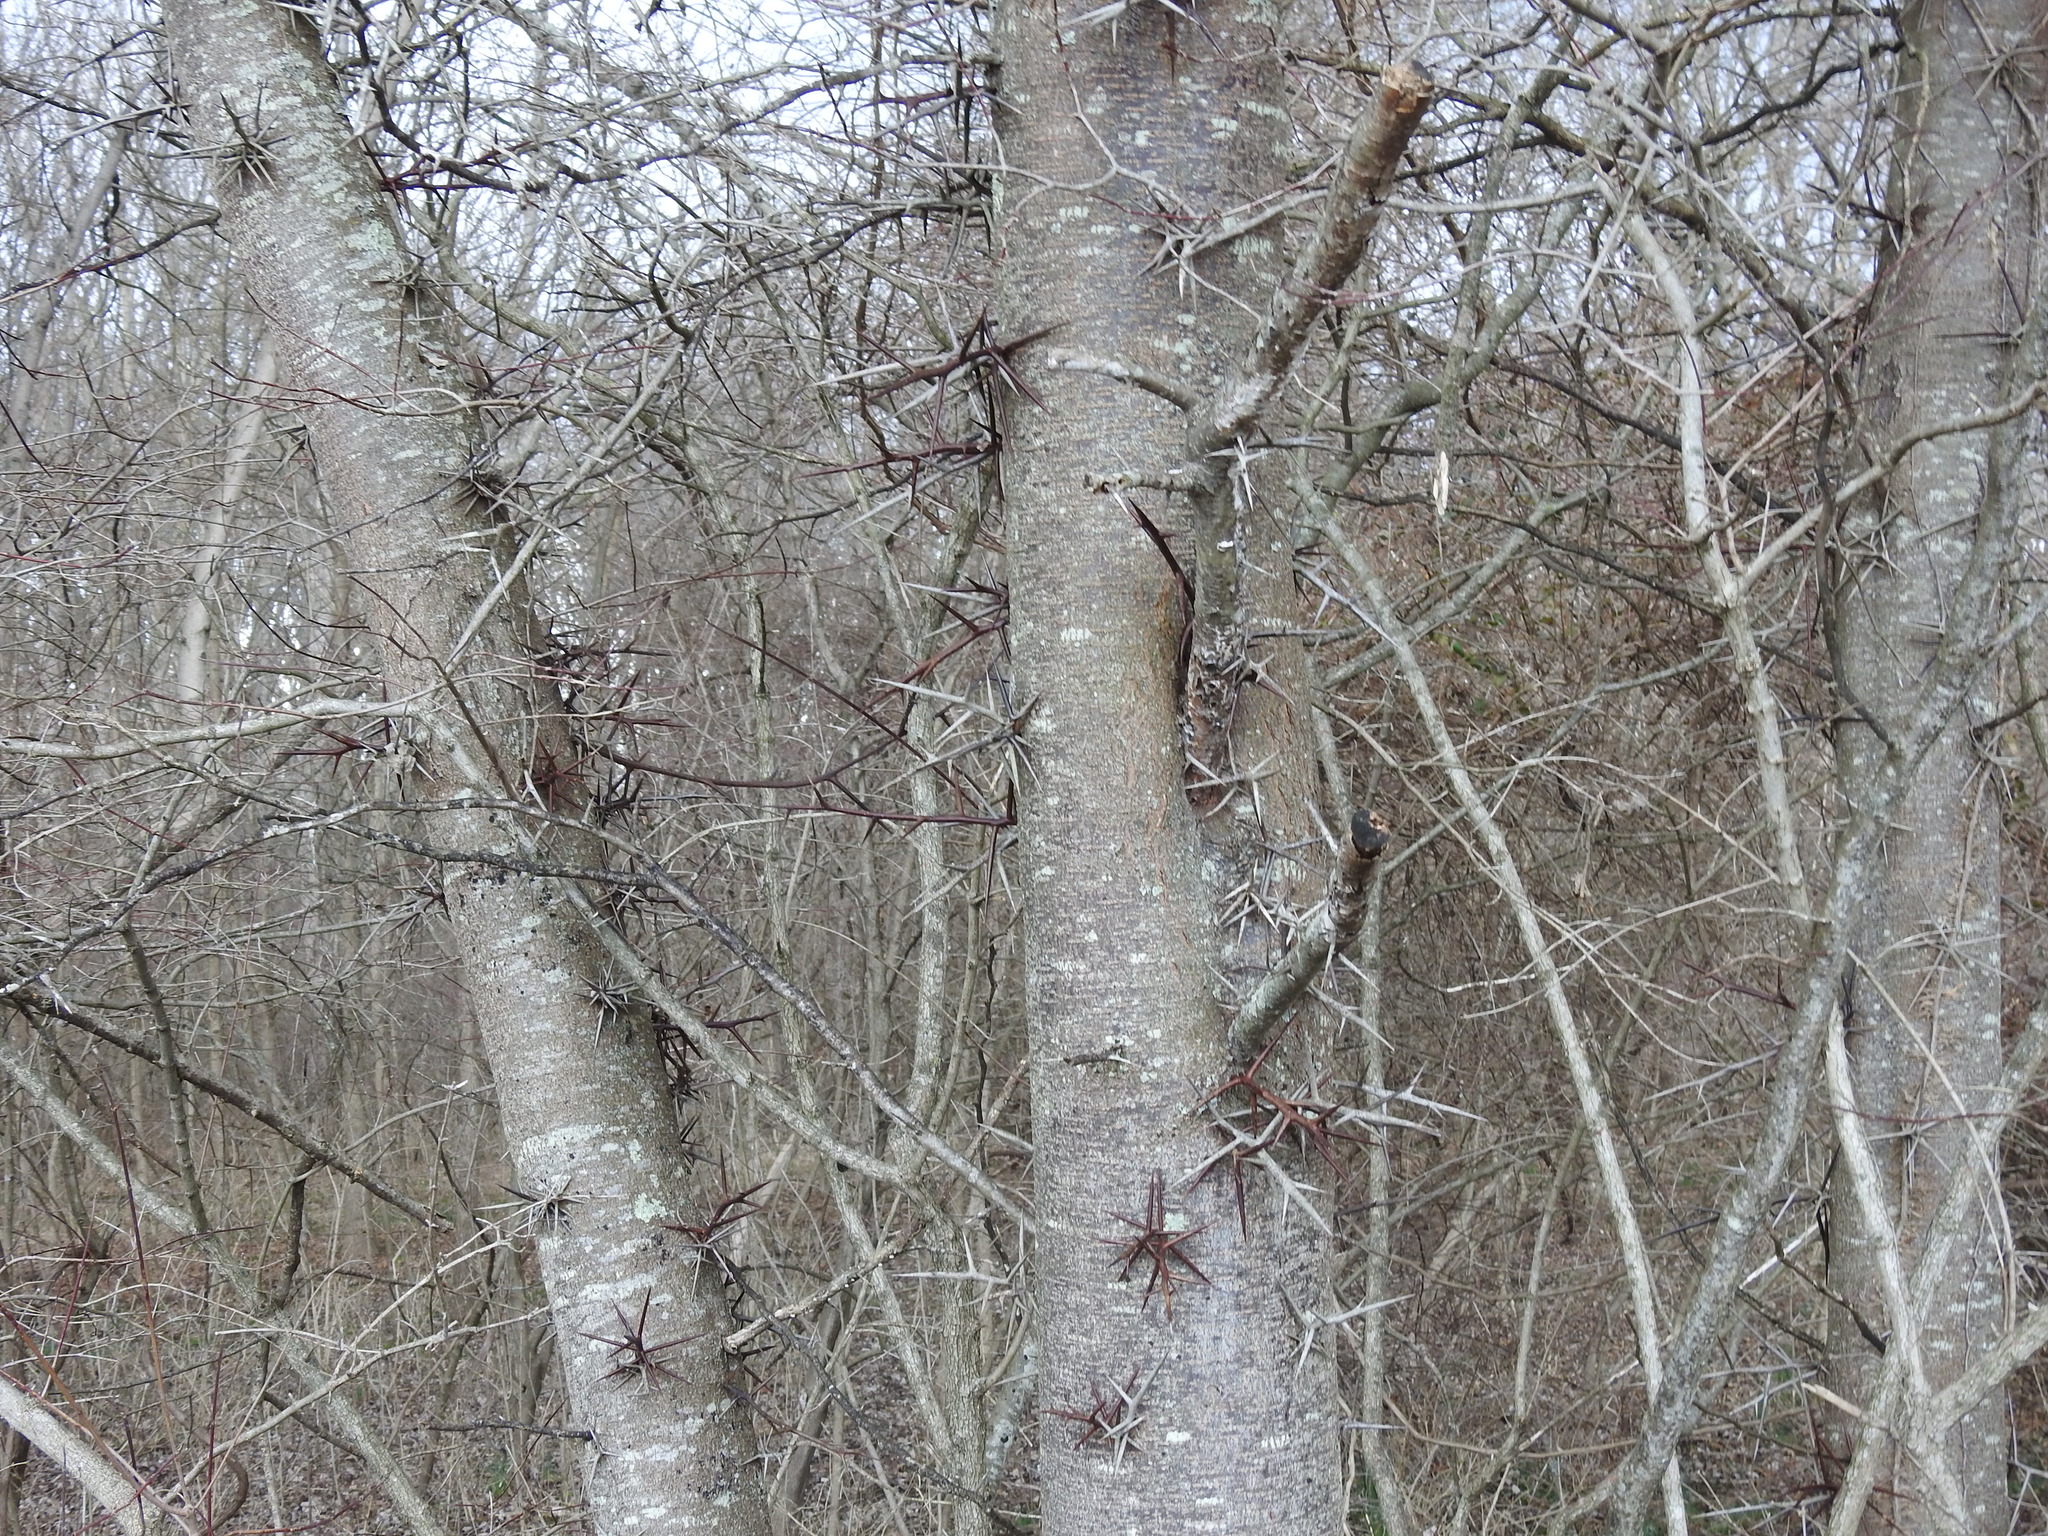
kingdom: Plantae
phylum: Tracheophyta
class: Magnoliopsida
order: Fabales
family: Fabaceae
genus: Gleditsia
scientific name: Gleditsia triacanthos
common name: Common honeylocust
